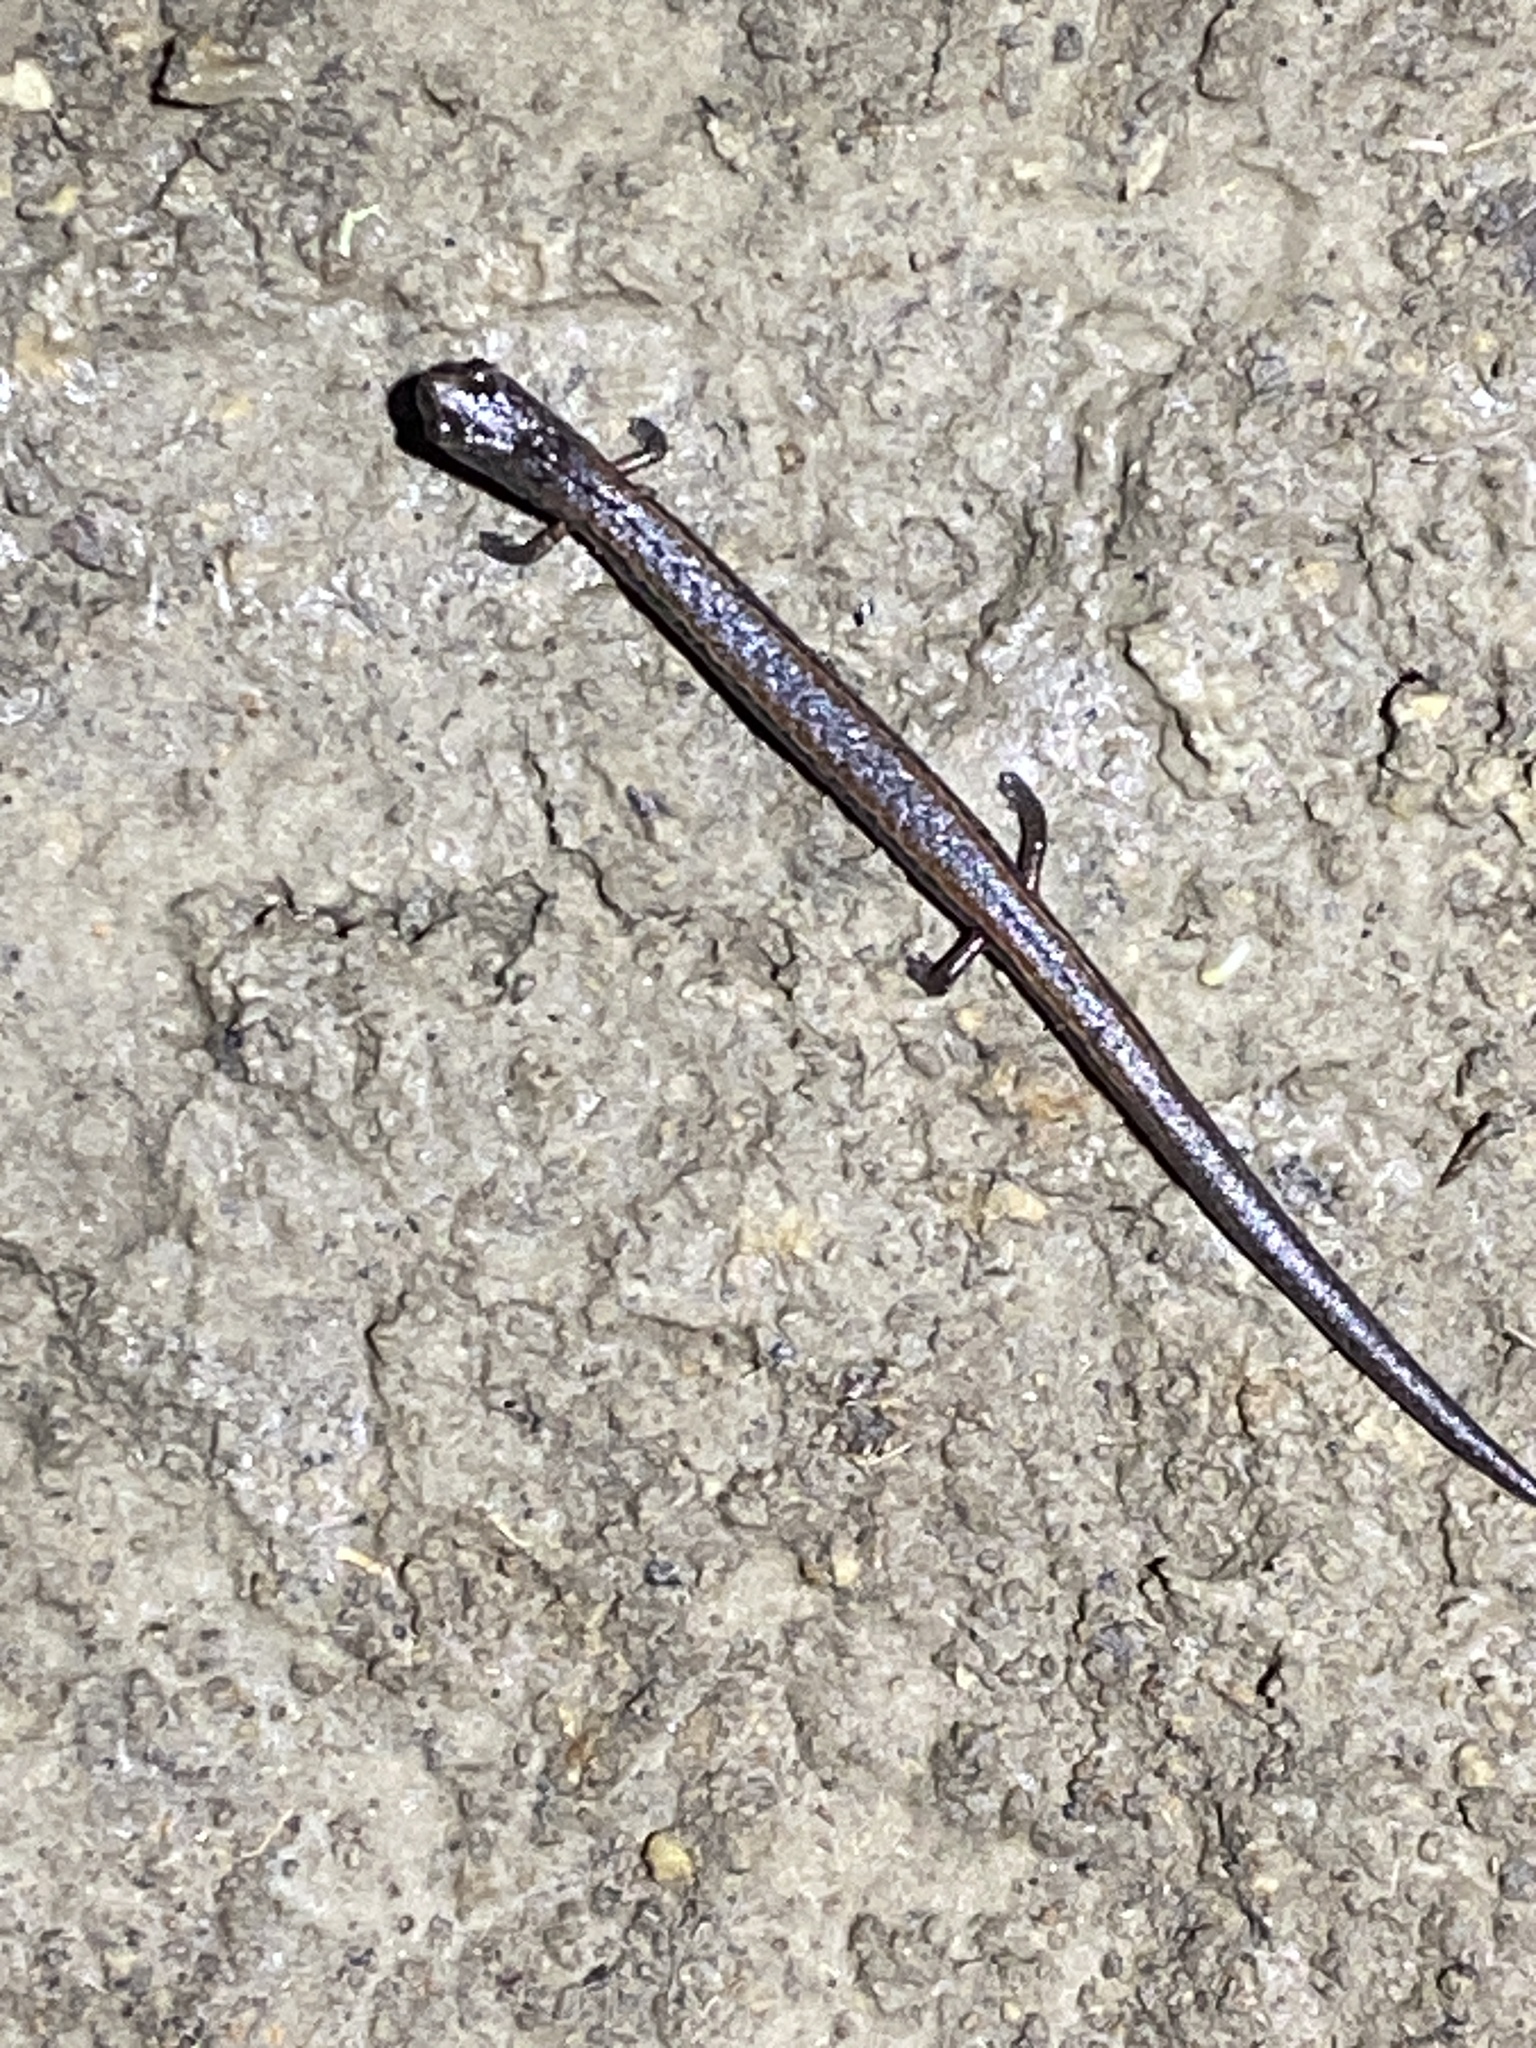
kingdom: Animalia
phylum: Chordata
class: Amphibia
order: Caudata
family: Plethodontidae
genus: Batrachoseps
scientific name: Batrachoseps attenuatus
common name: California slender salamander
